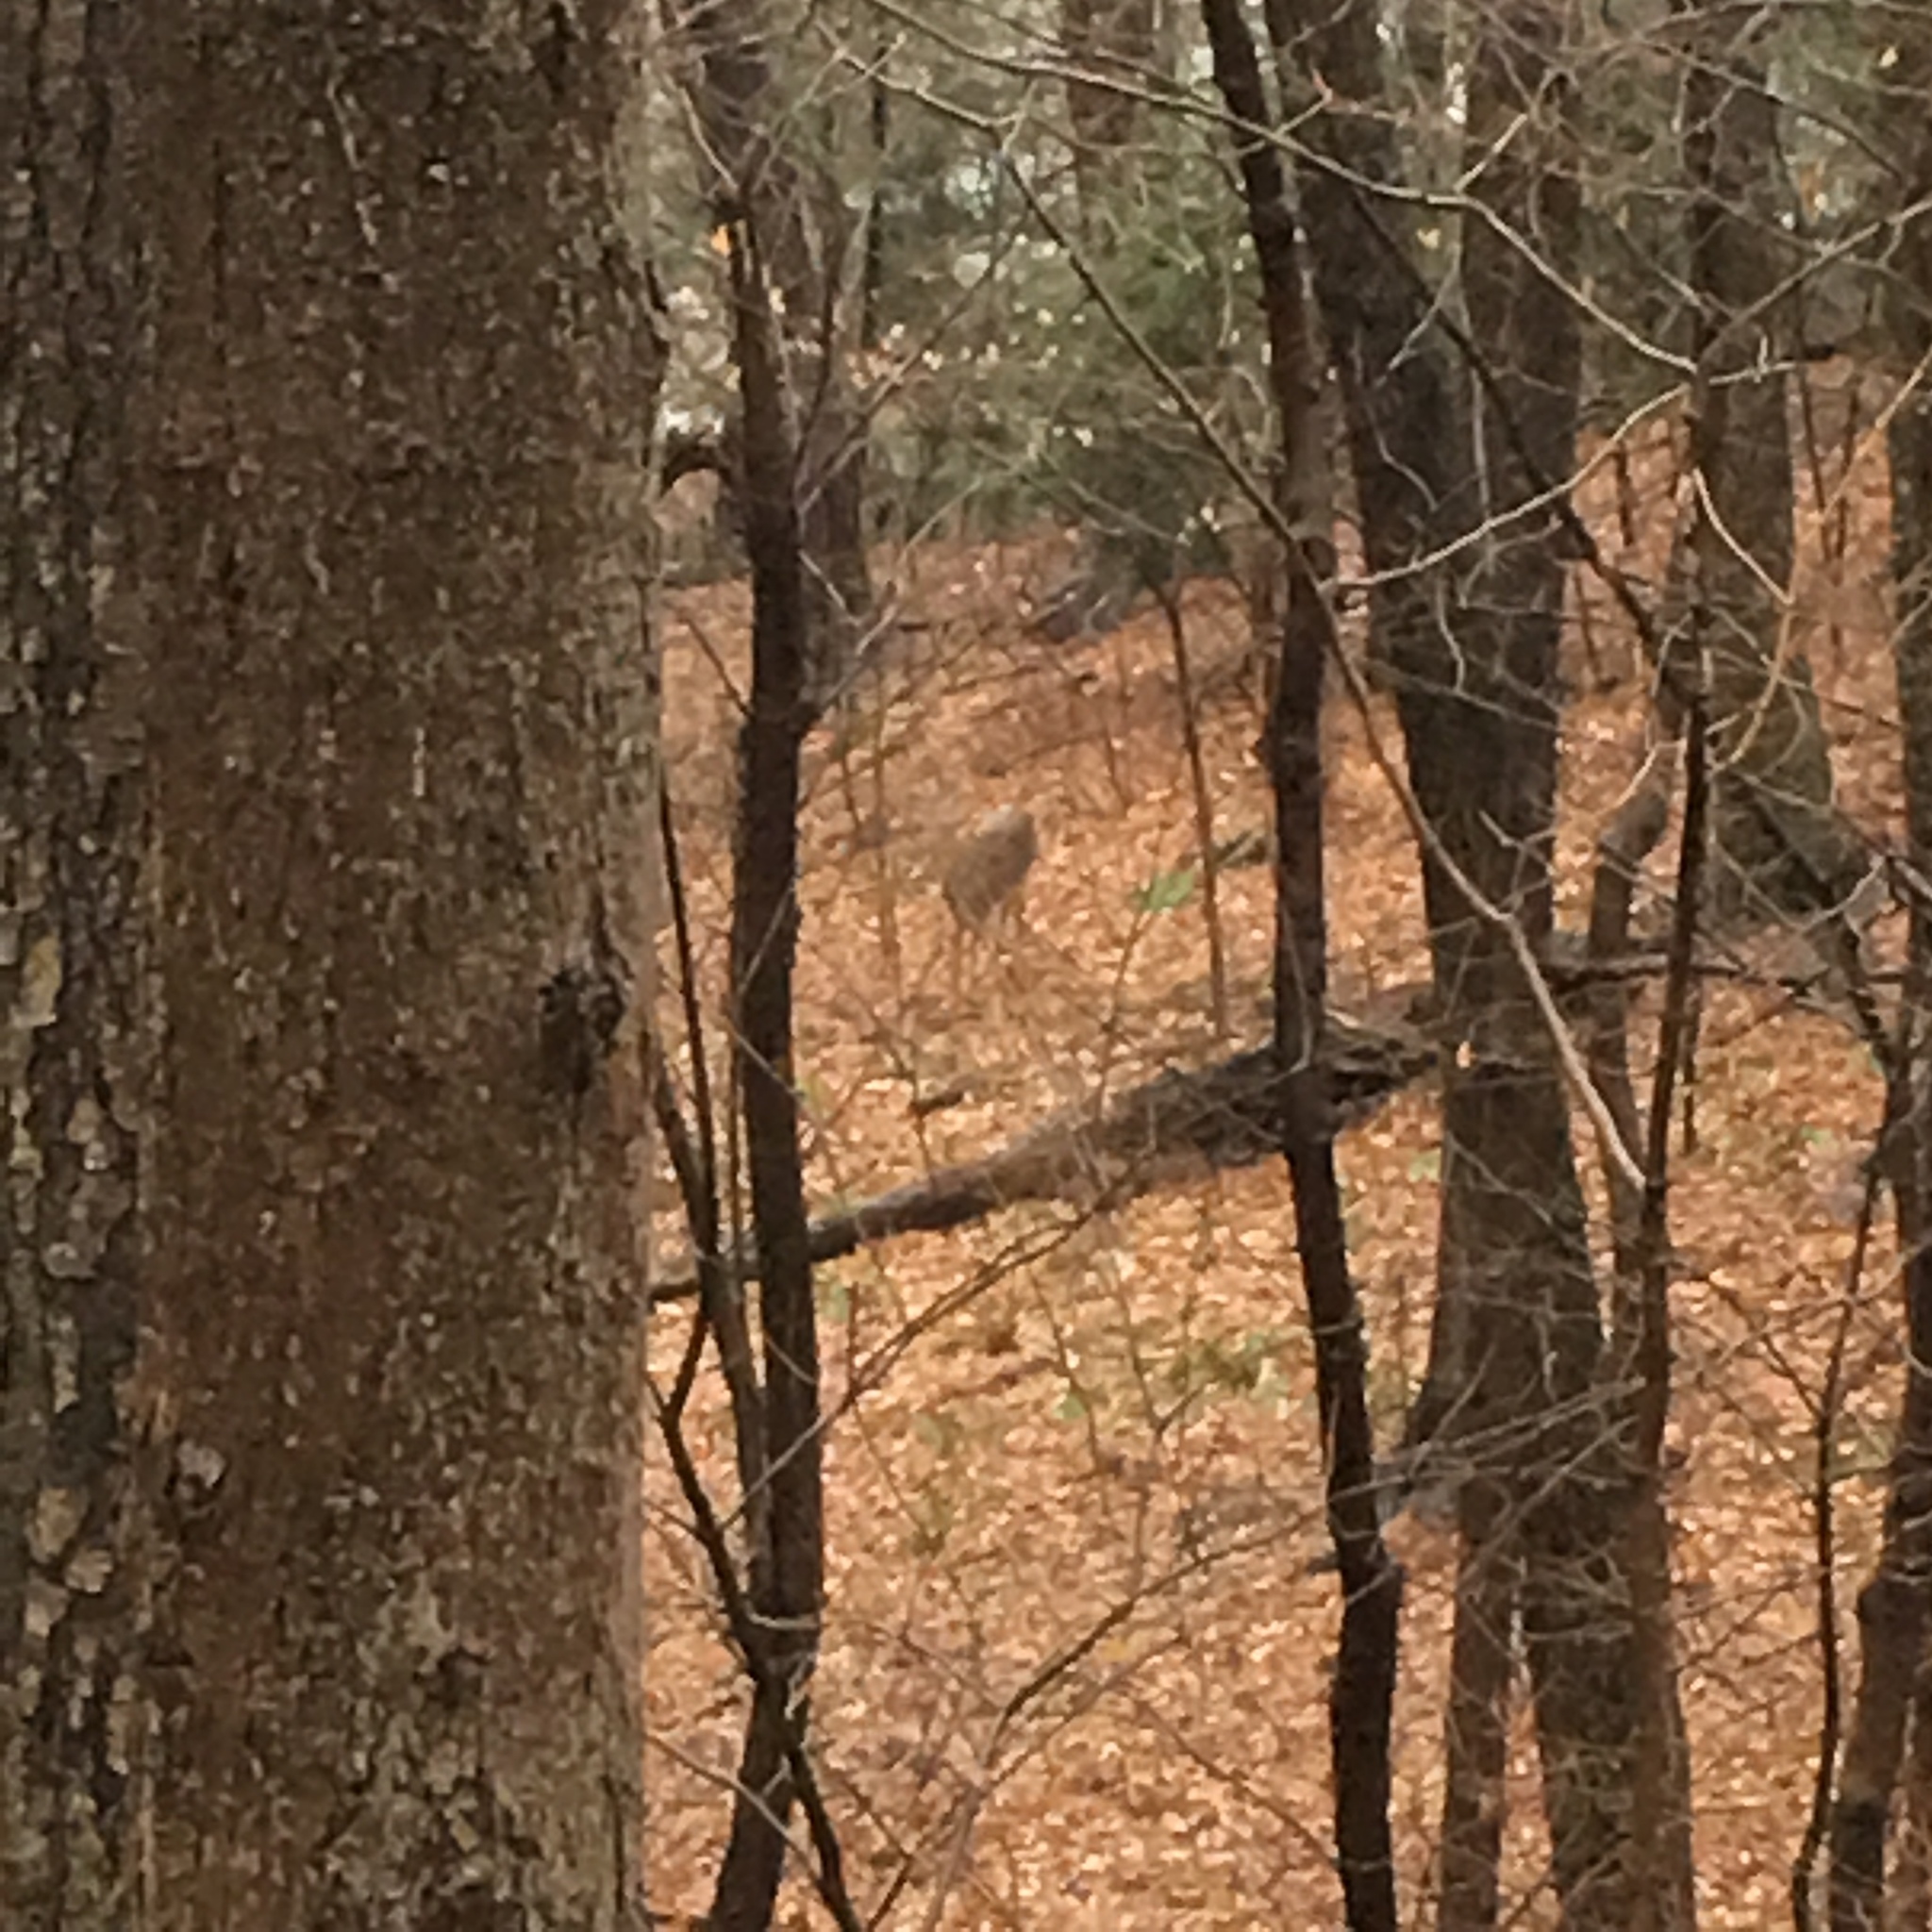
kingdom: Animalia
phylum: Chordata
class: Mammalia
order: Artiodactyla
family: Cervidae
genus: Odocoileus
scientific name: Odocoileus virginianus
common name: White-tailed deer
